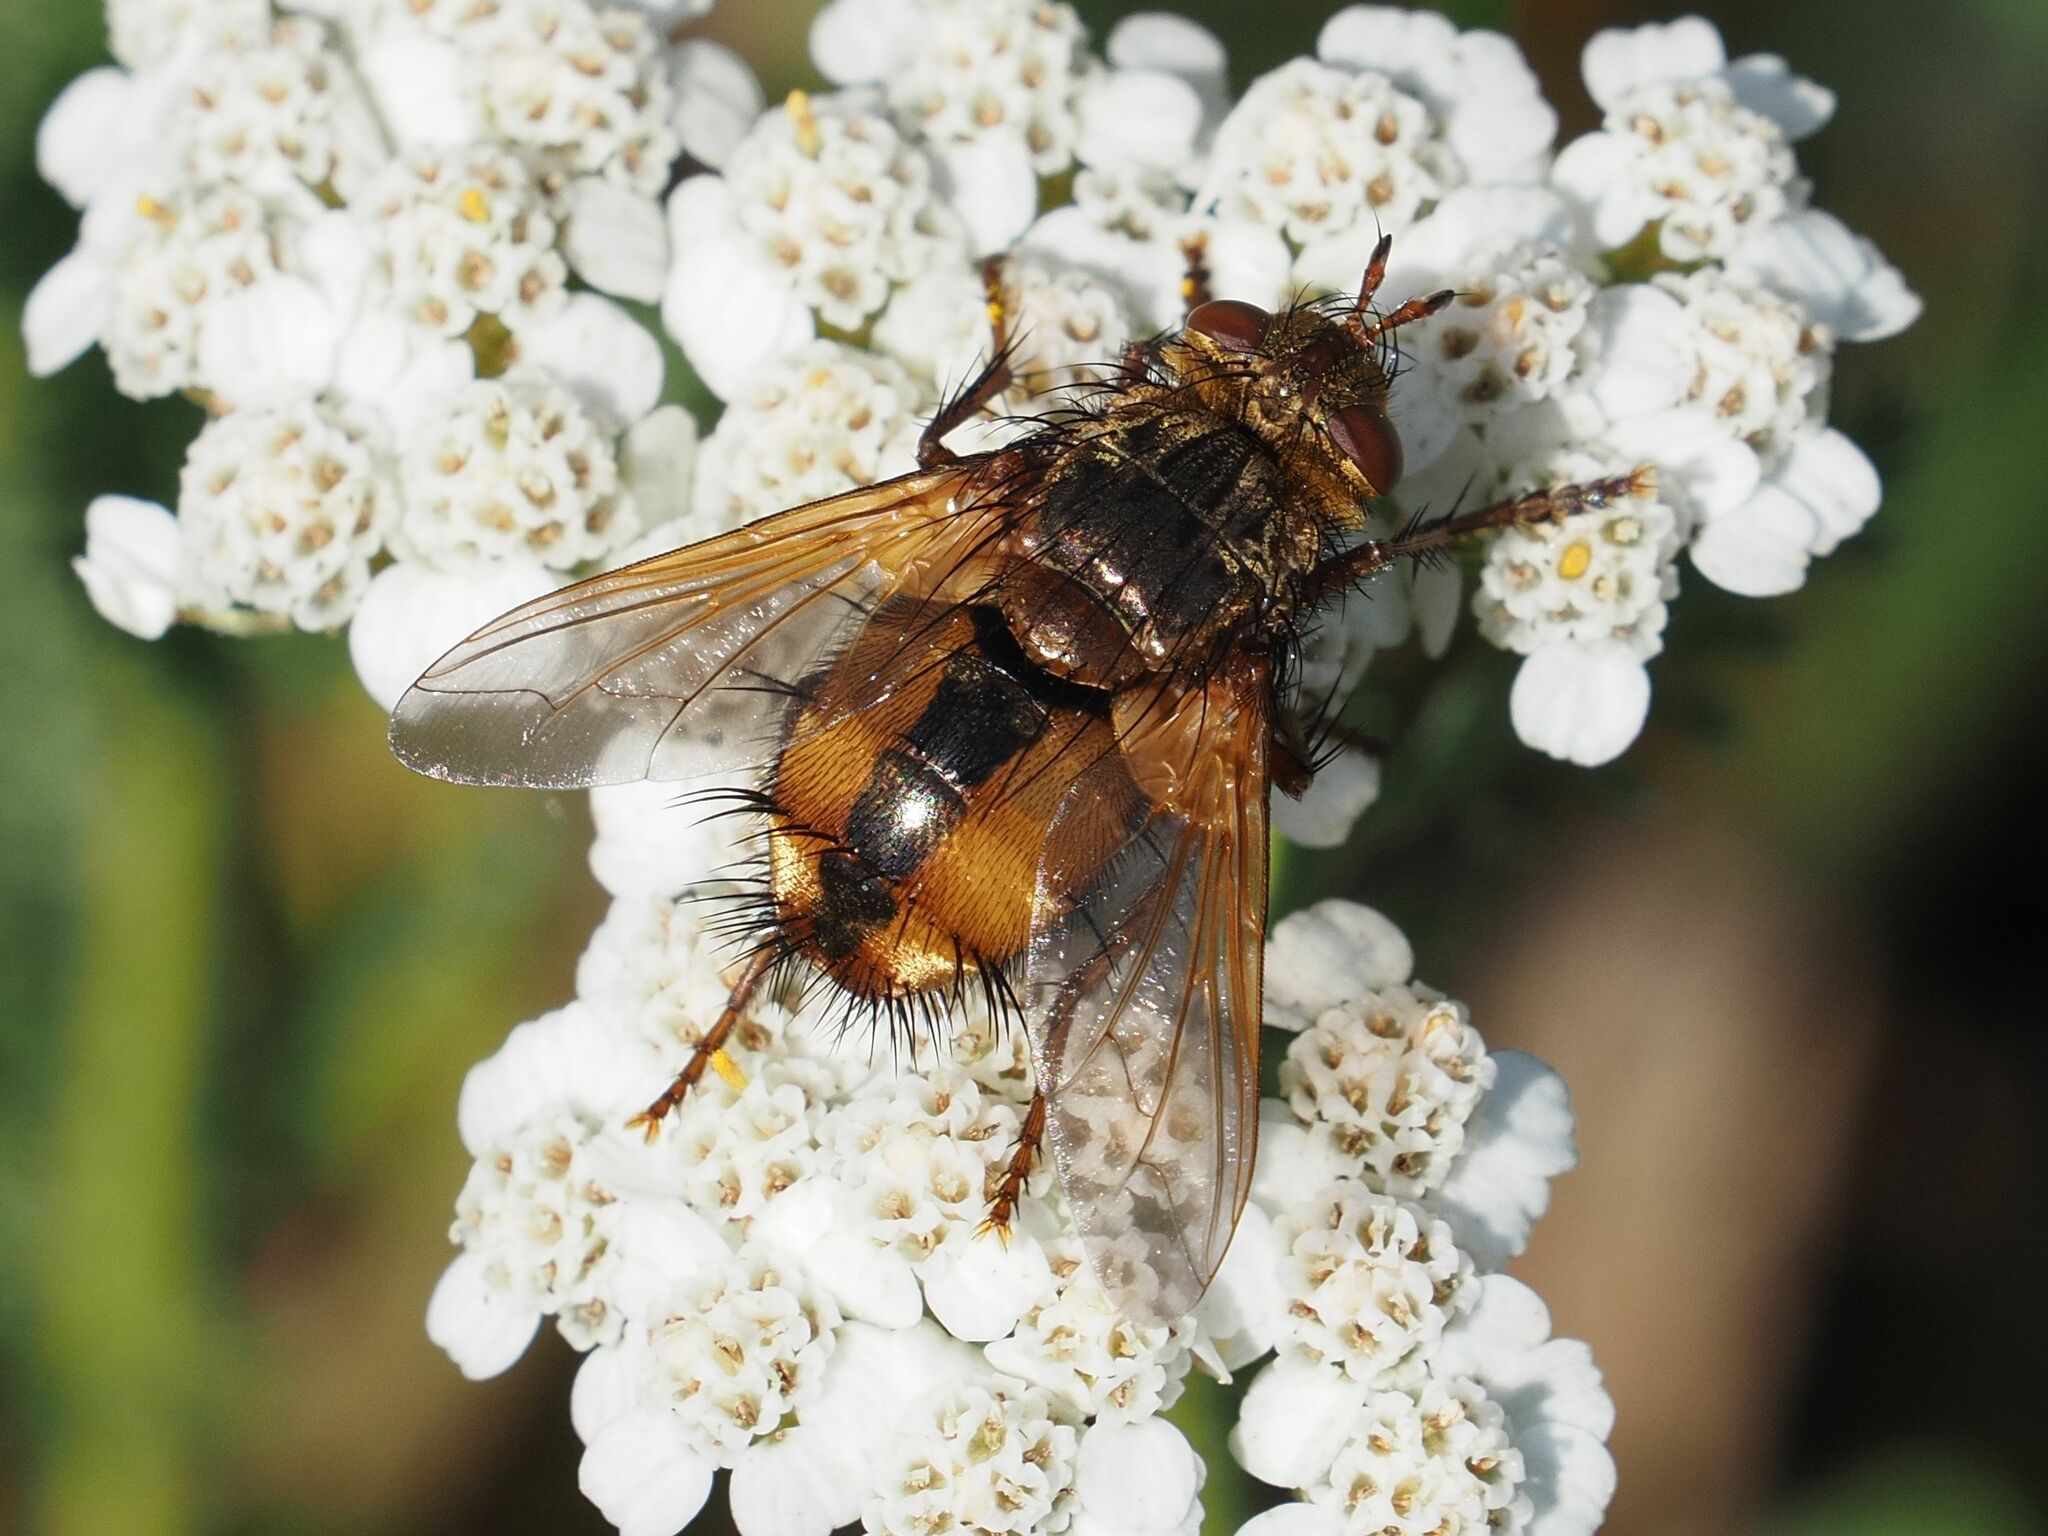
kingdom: Animalia
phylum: Arthropoda
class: Insecta
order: Diptera
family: Tachinidae
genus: Tachina
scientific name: Tachina fera
